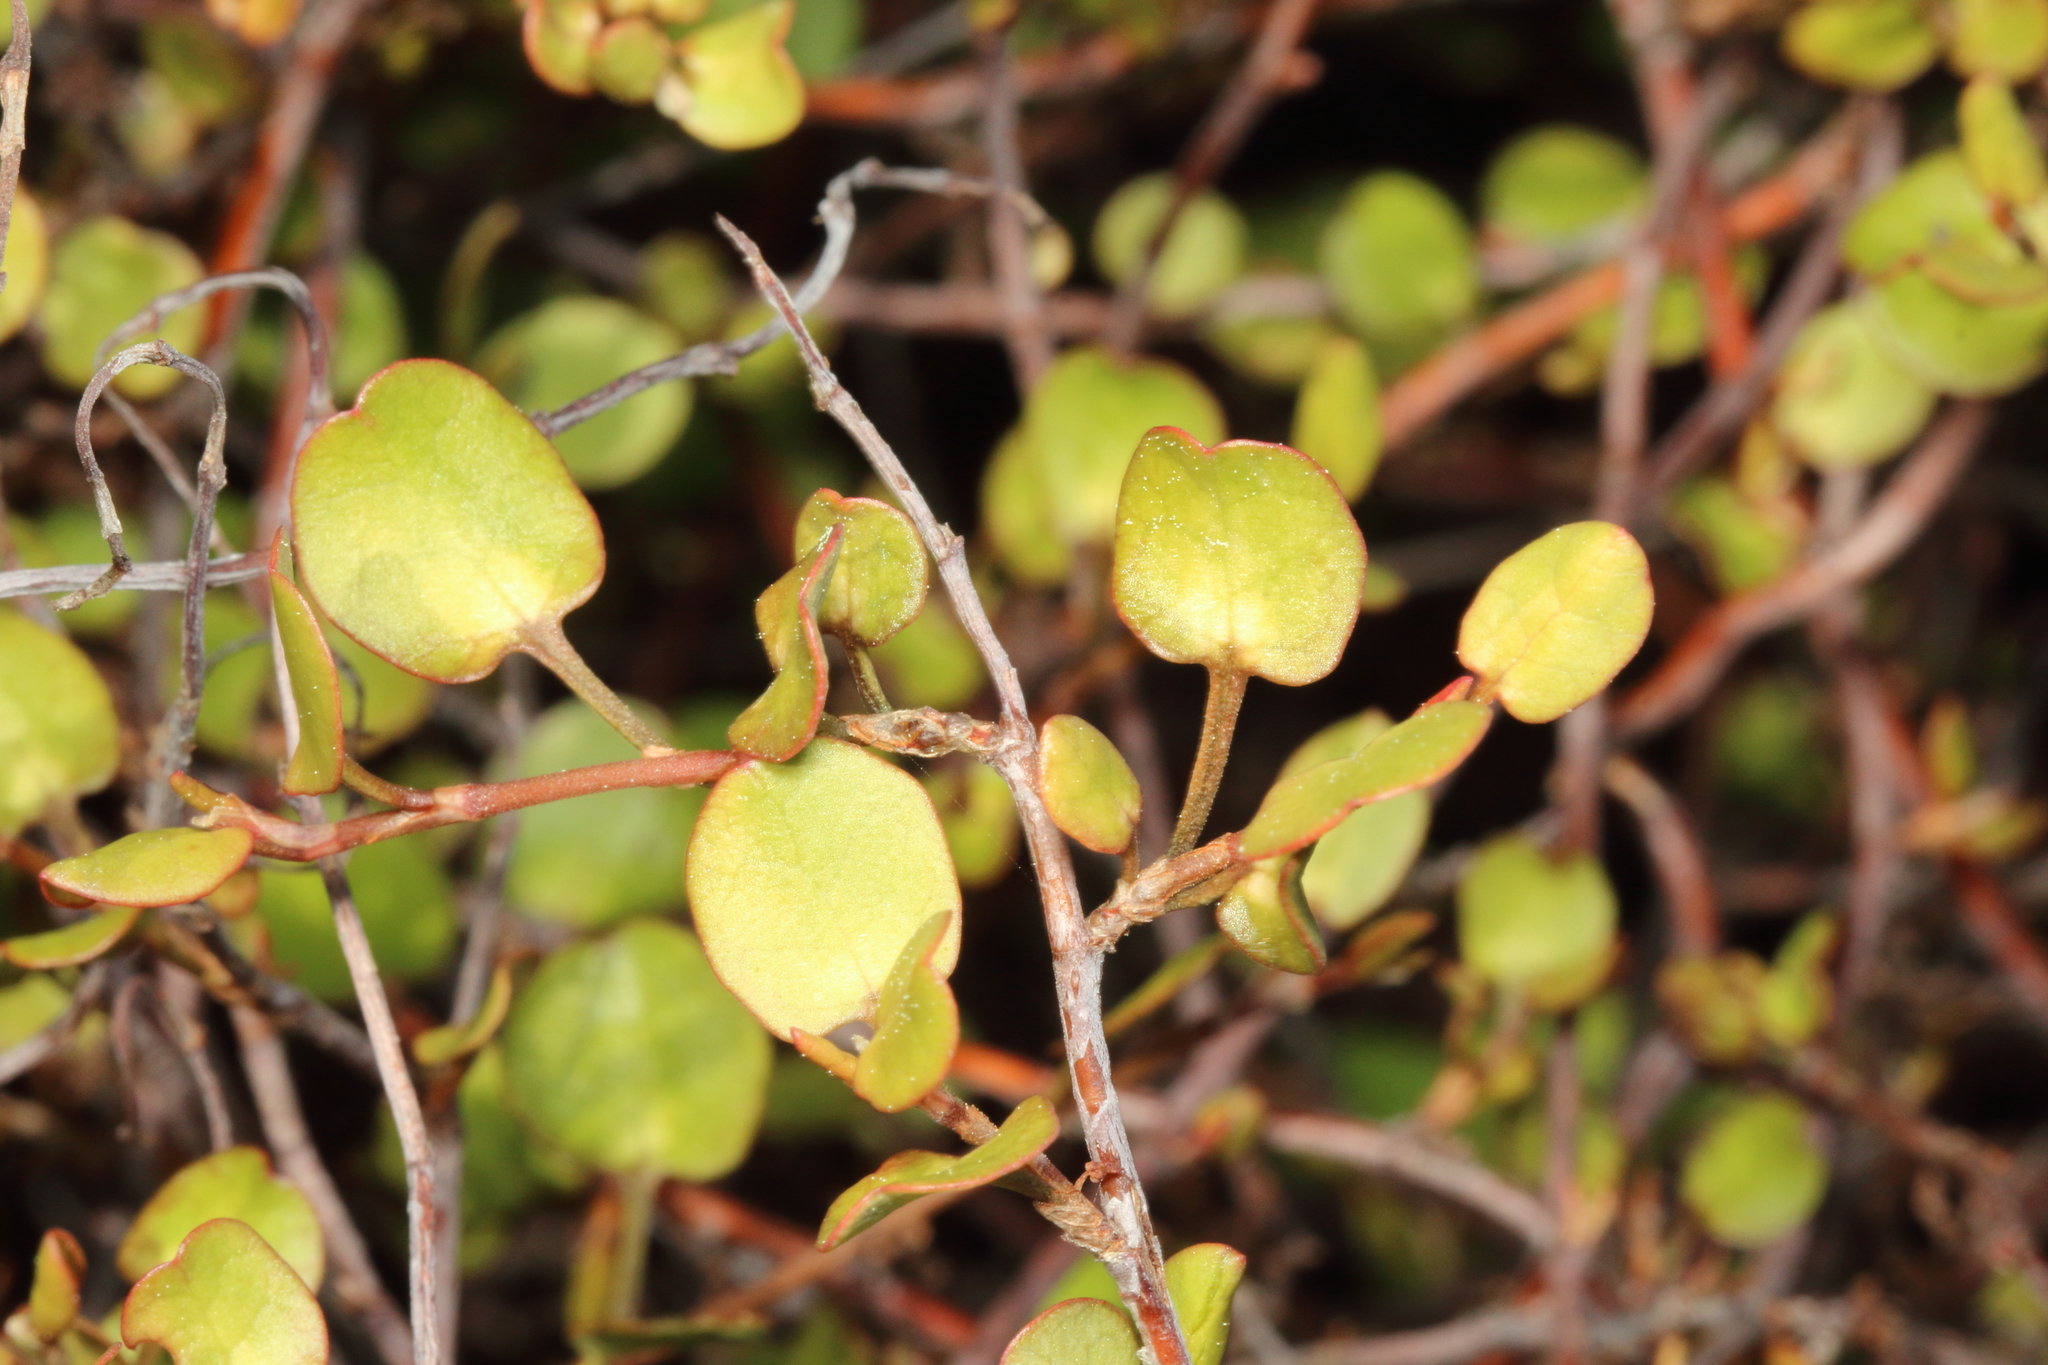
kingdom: Plantae
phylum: Tracheophyta
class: Magnoliopsida
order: Caryophyllales
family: Polygonaceae
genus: Muehlenbeckia
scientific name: Muehlenbeckia complexa
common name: Wireplant
